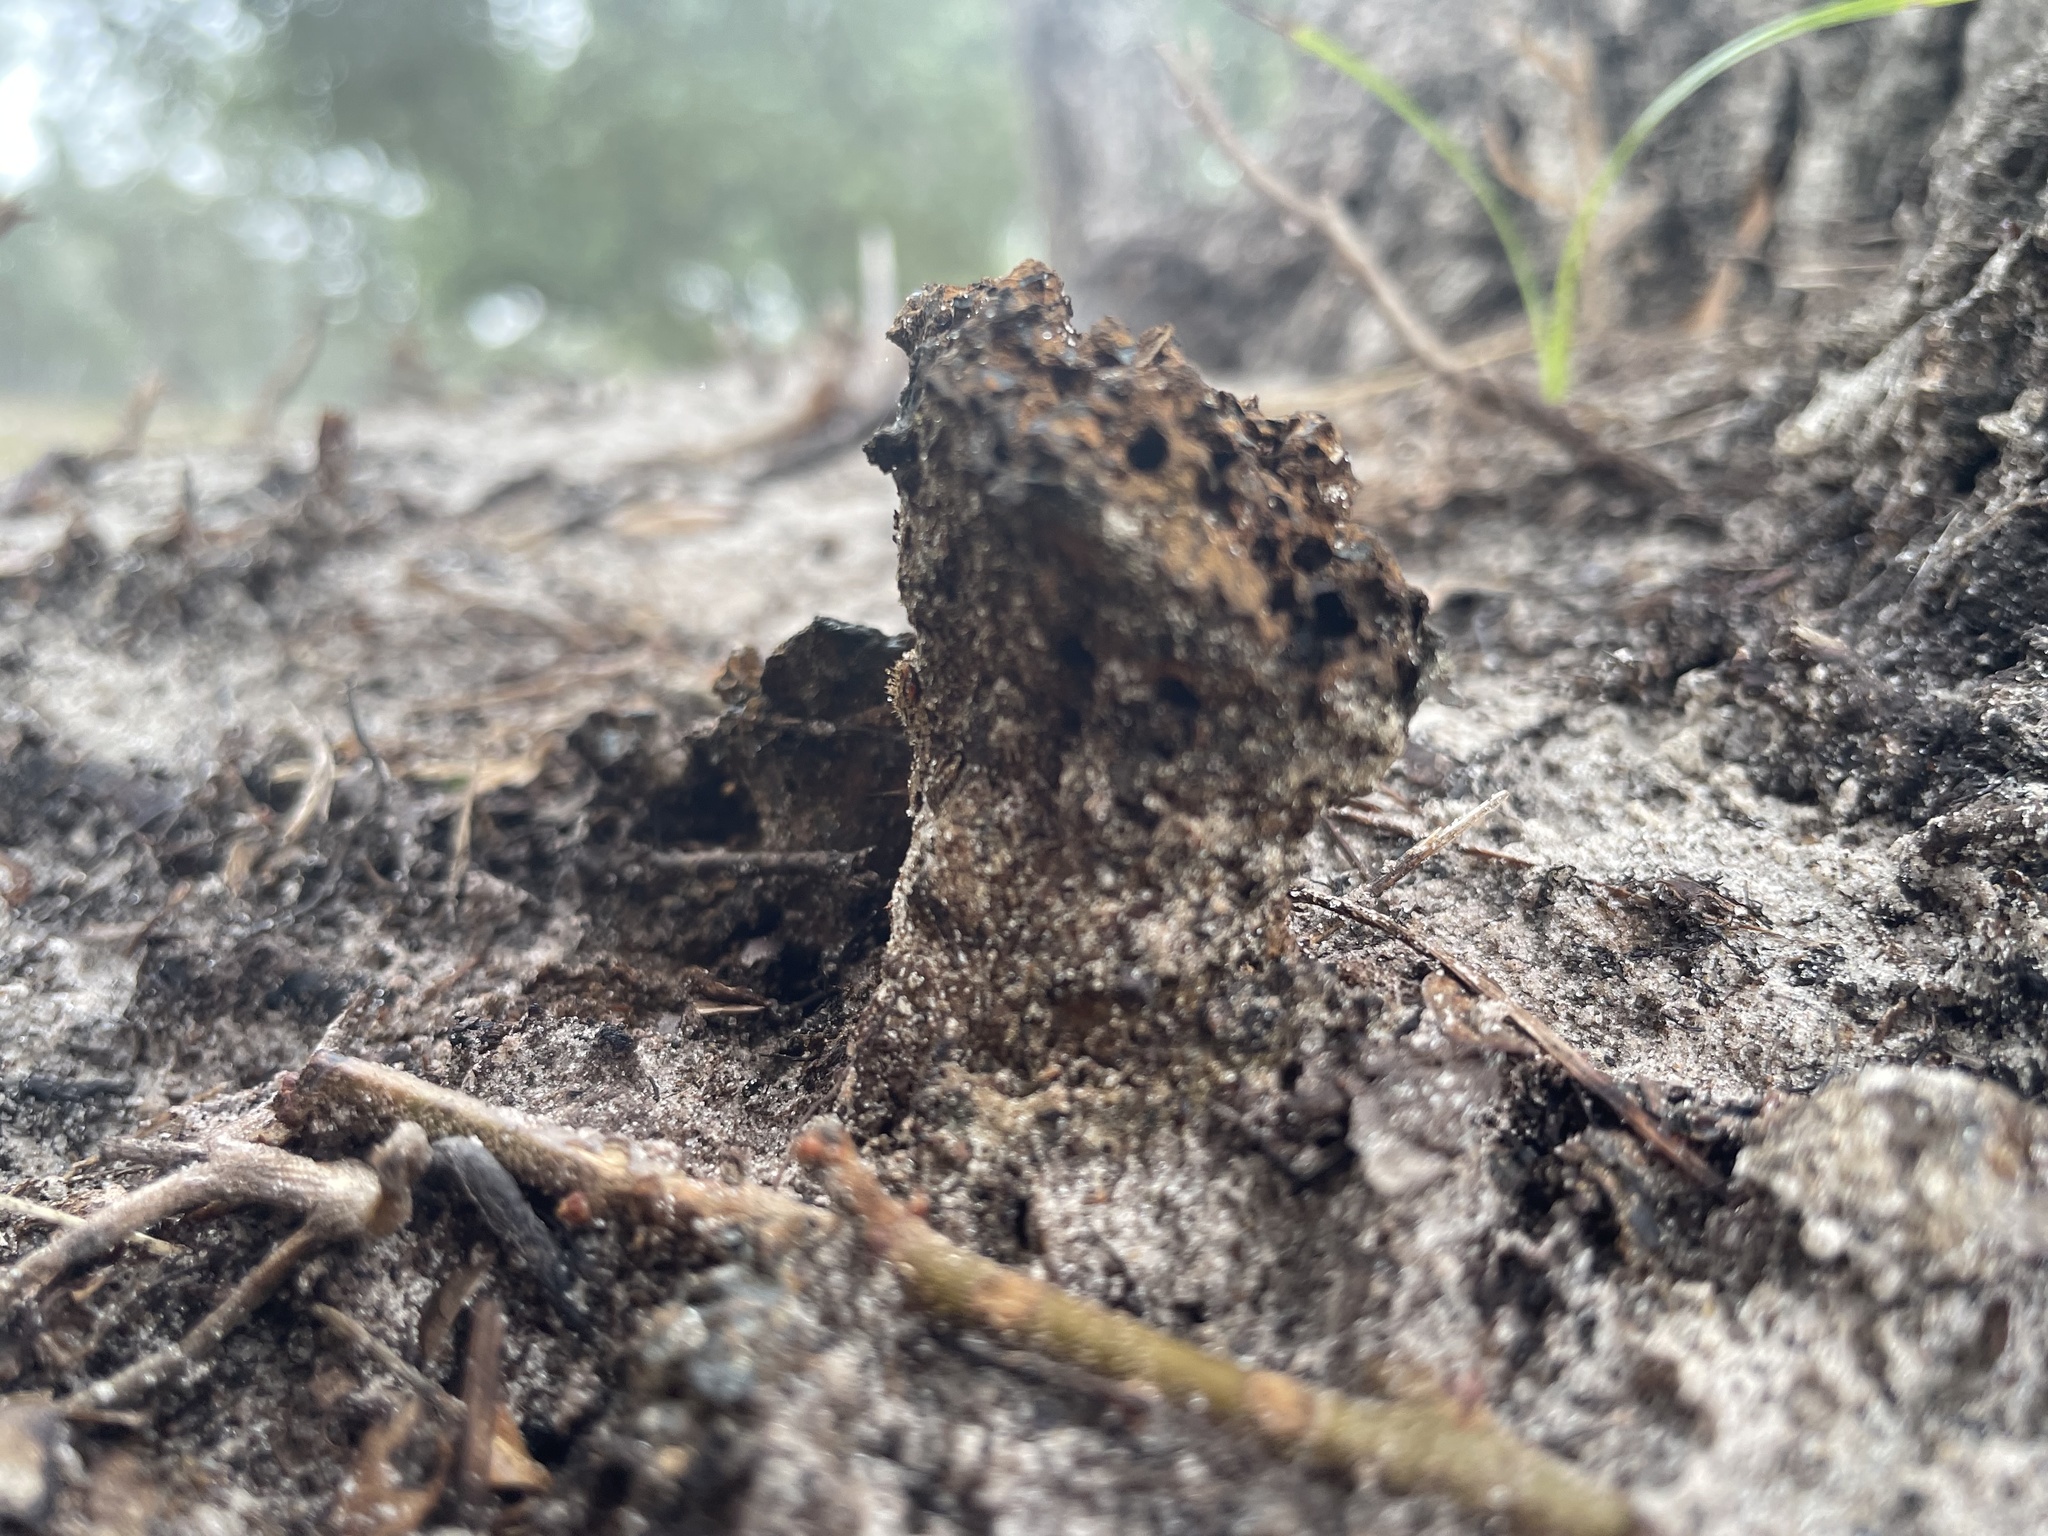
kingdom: Fungi
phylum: Basidiomycota
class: Agaricomycetes
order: Boletales
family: Sclerodermataceae
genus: Pisolithus
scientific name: Pisolithus arenarius
